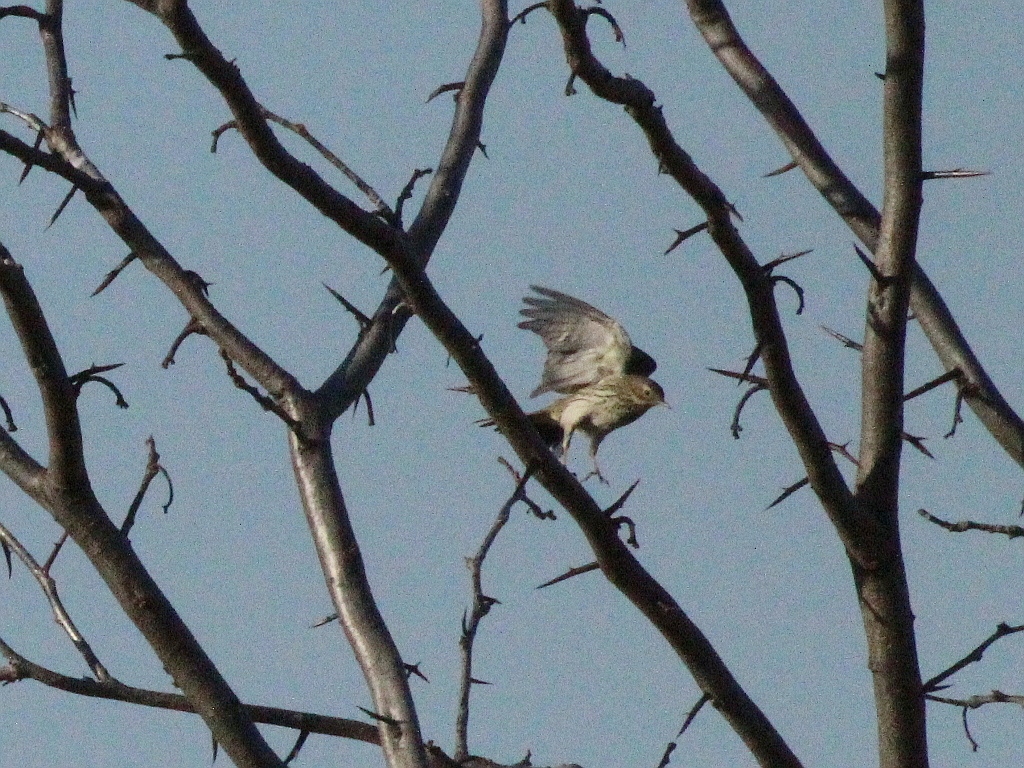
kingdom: Animalia
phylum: Chordata
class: Aves
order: Passeriformes
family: Motacillidae
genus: Anthus
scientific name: Anthus pratensis
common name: Meadow pipit
